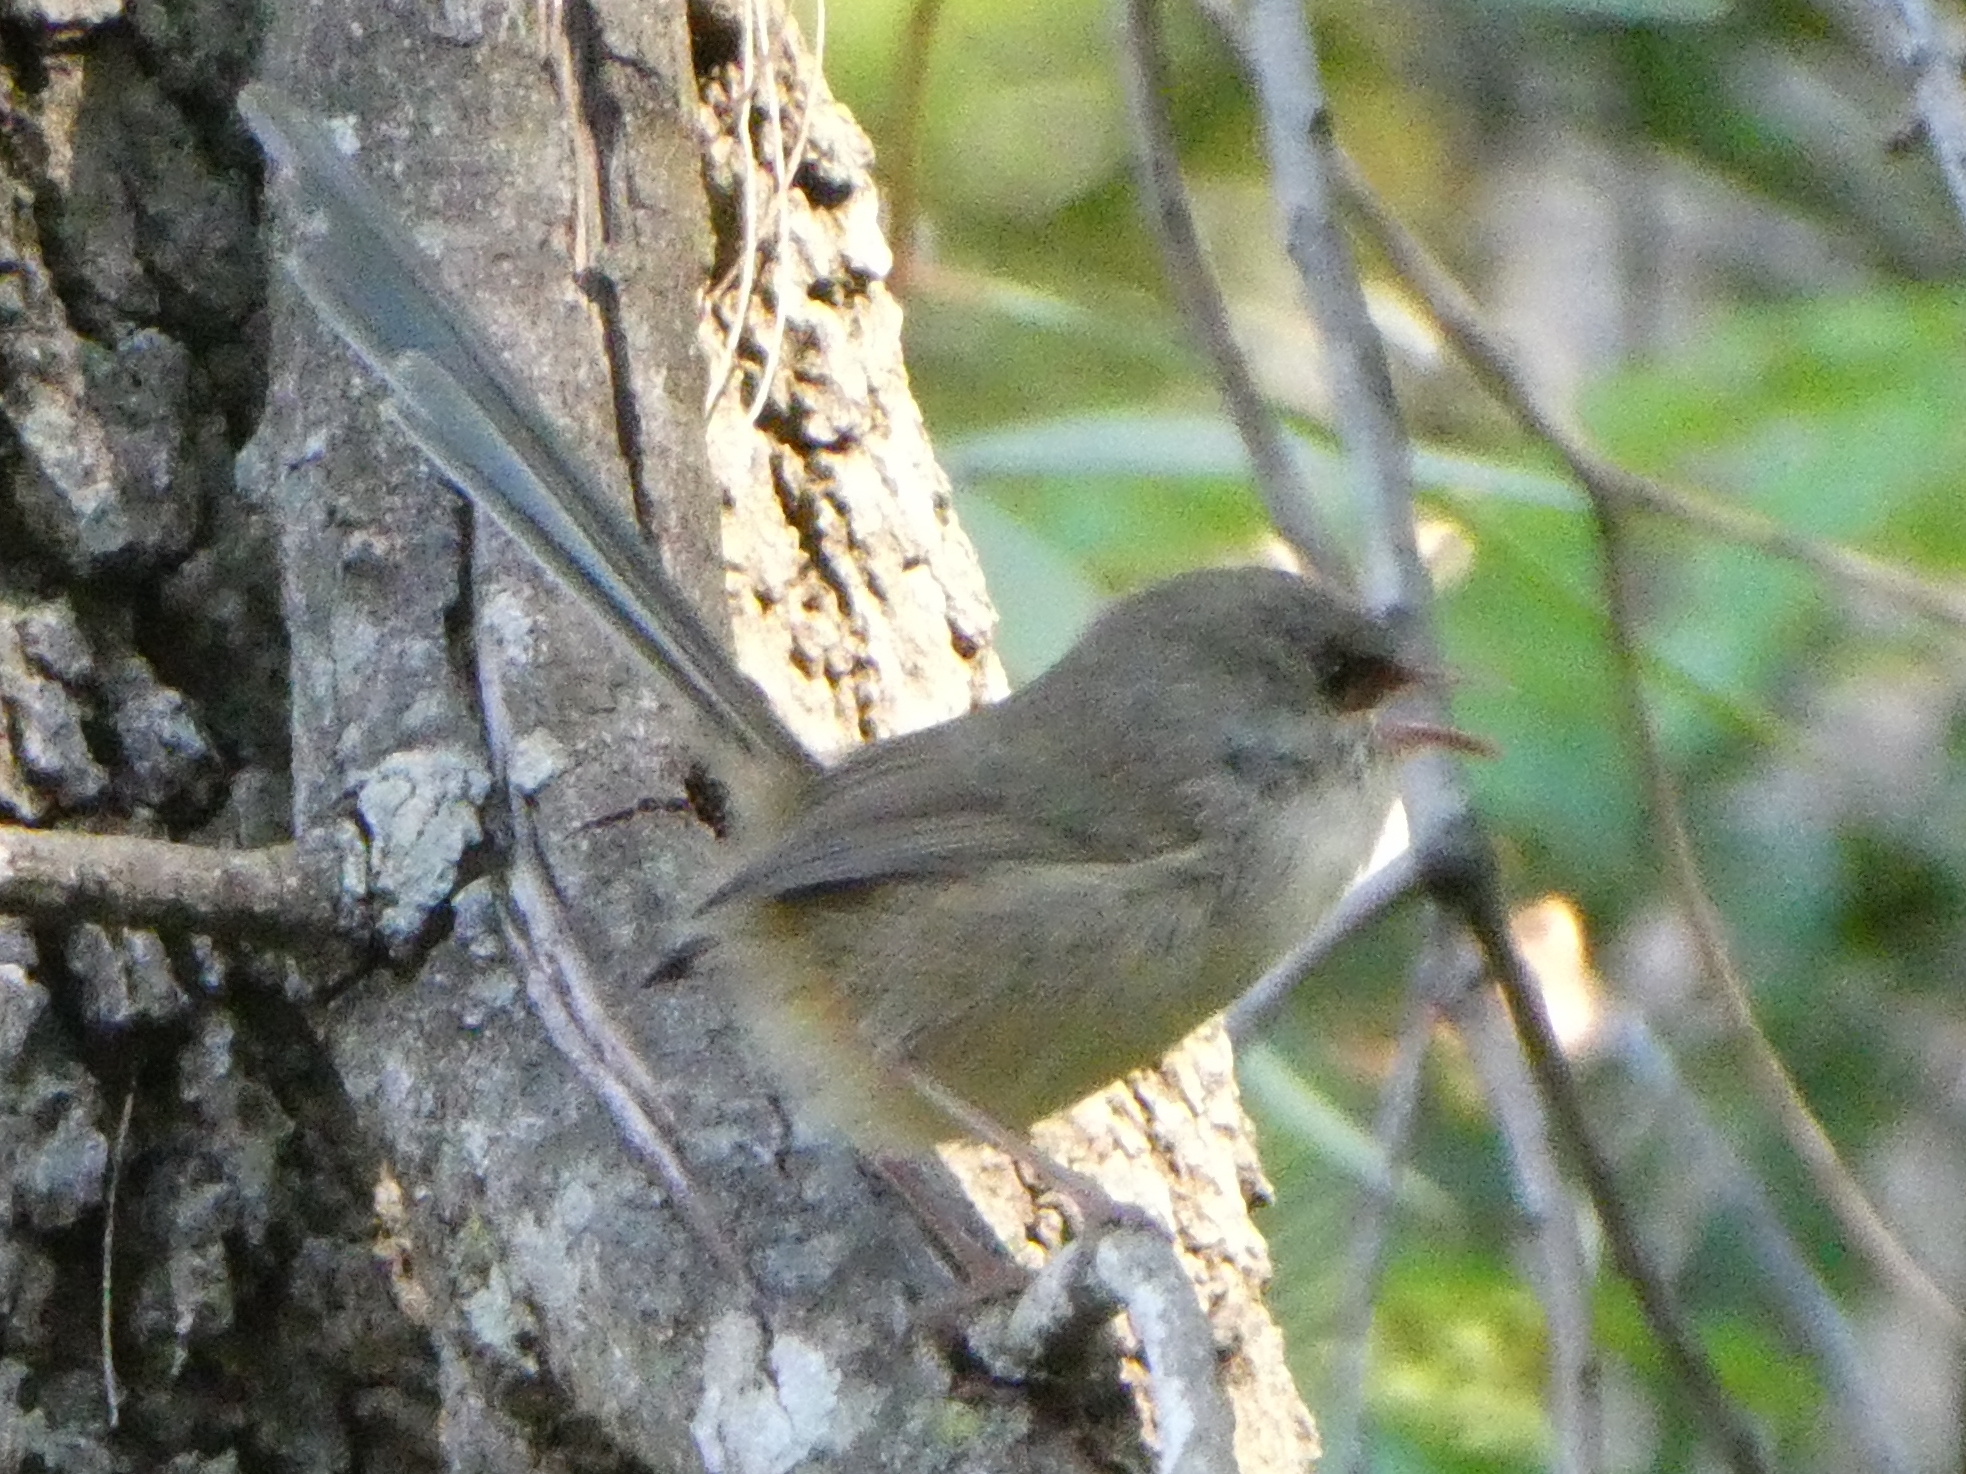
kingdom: Animalia
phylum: Chordata
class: Aves
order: Passeriformes
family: Maluridae
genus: Malurus
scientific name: Malurus lamberti
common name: Variegated fairywren
